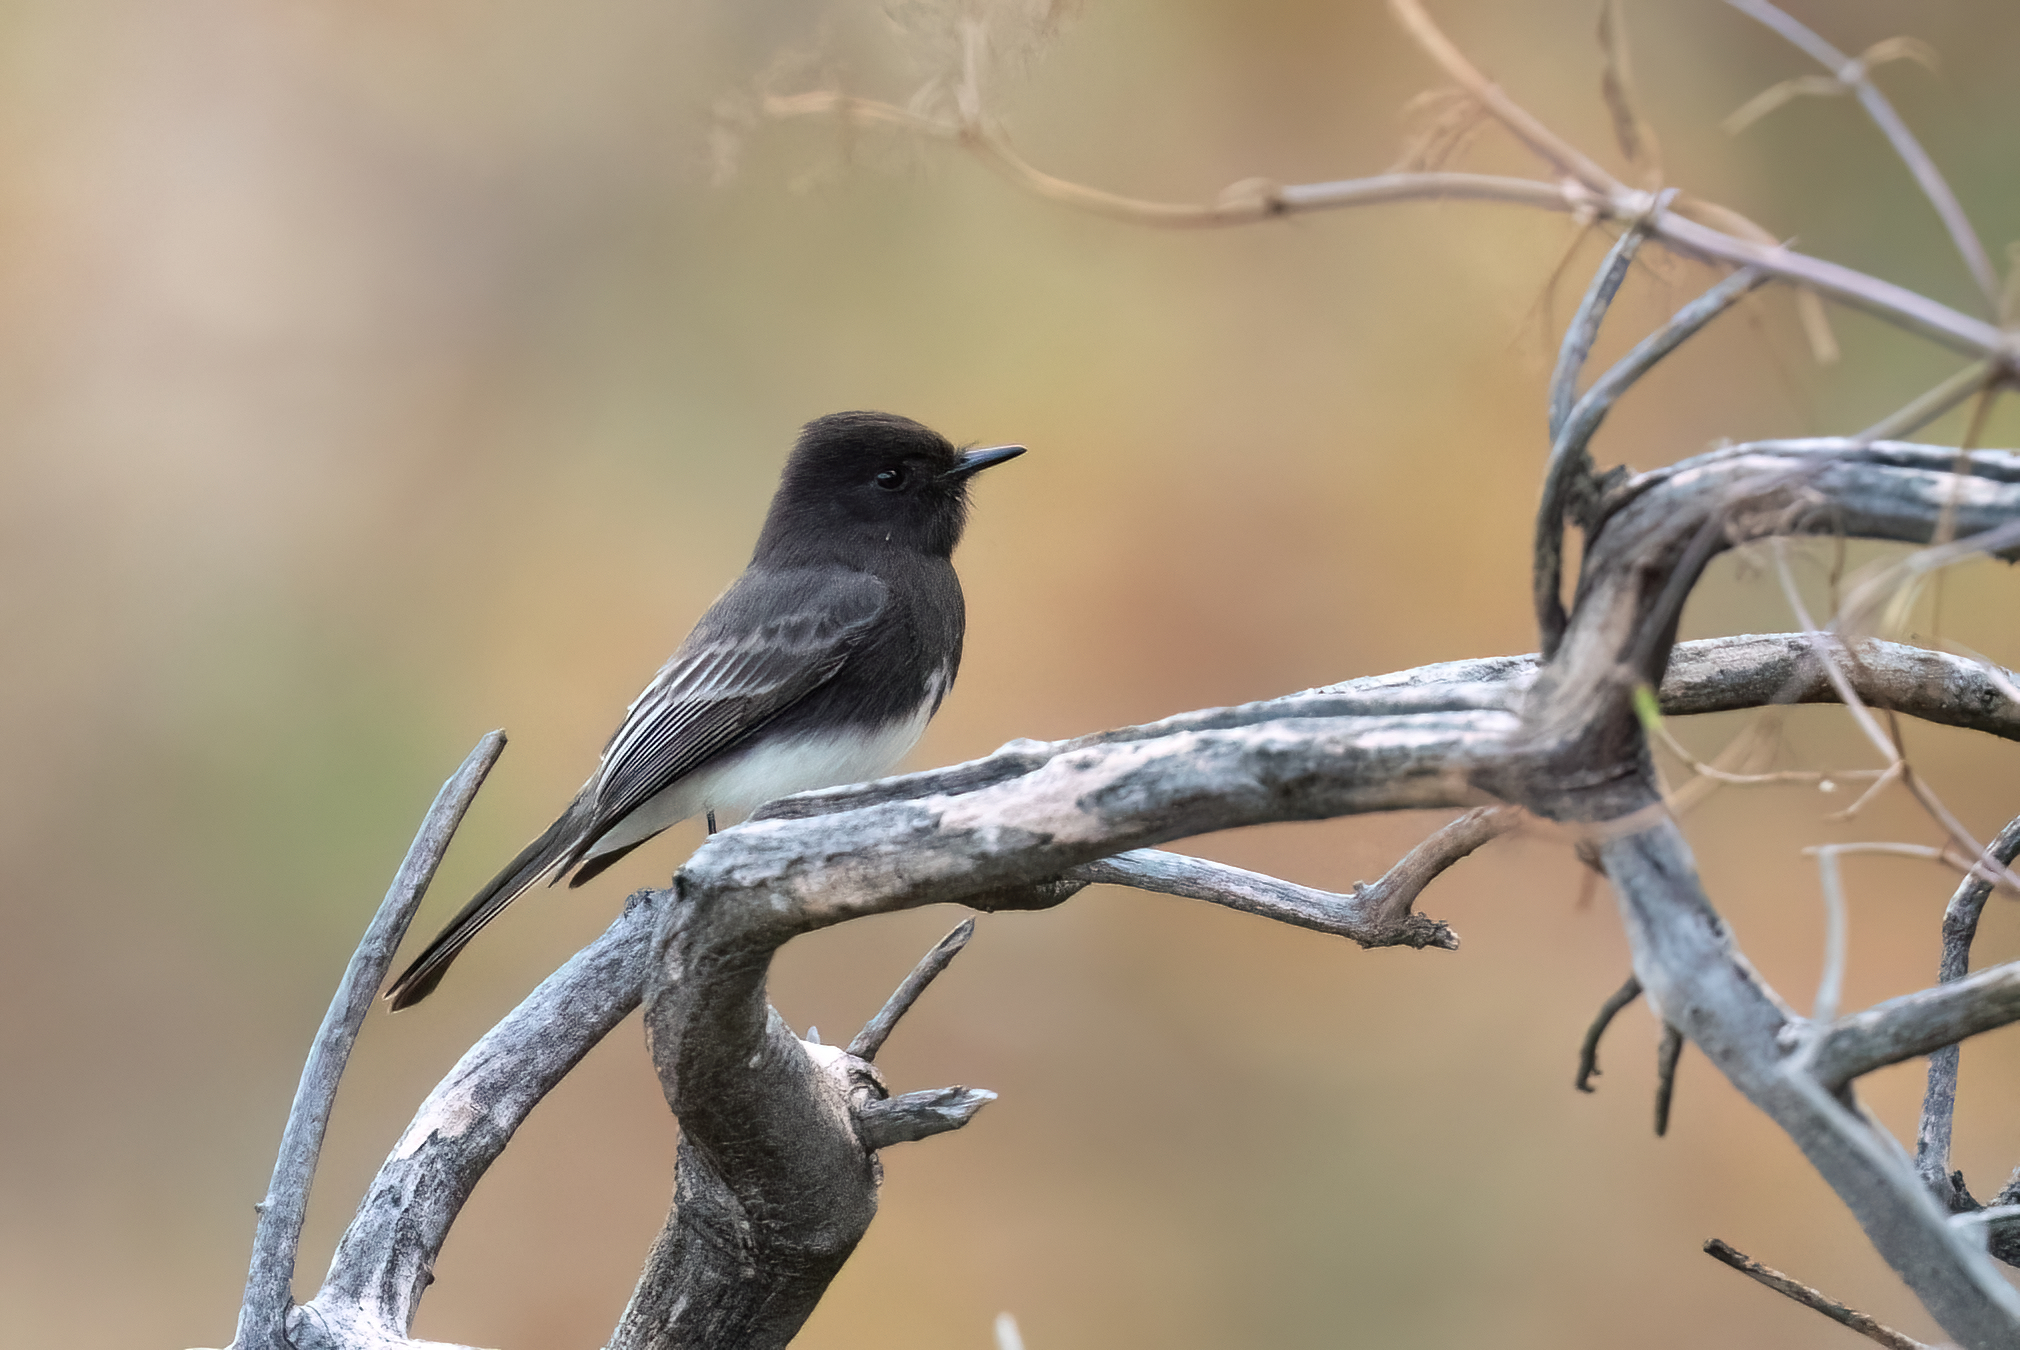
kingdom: Animalia
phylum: Chordata
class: Aves
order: Passeriformes
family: Tyrannidae
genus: Sayornis
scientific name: Sayornis nigricans
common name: Black phoebe
